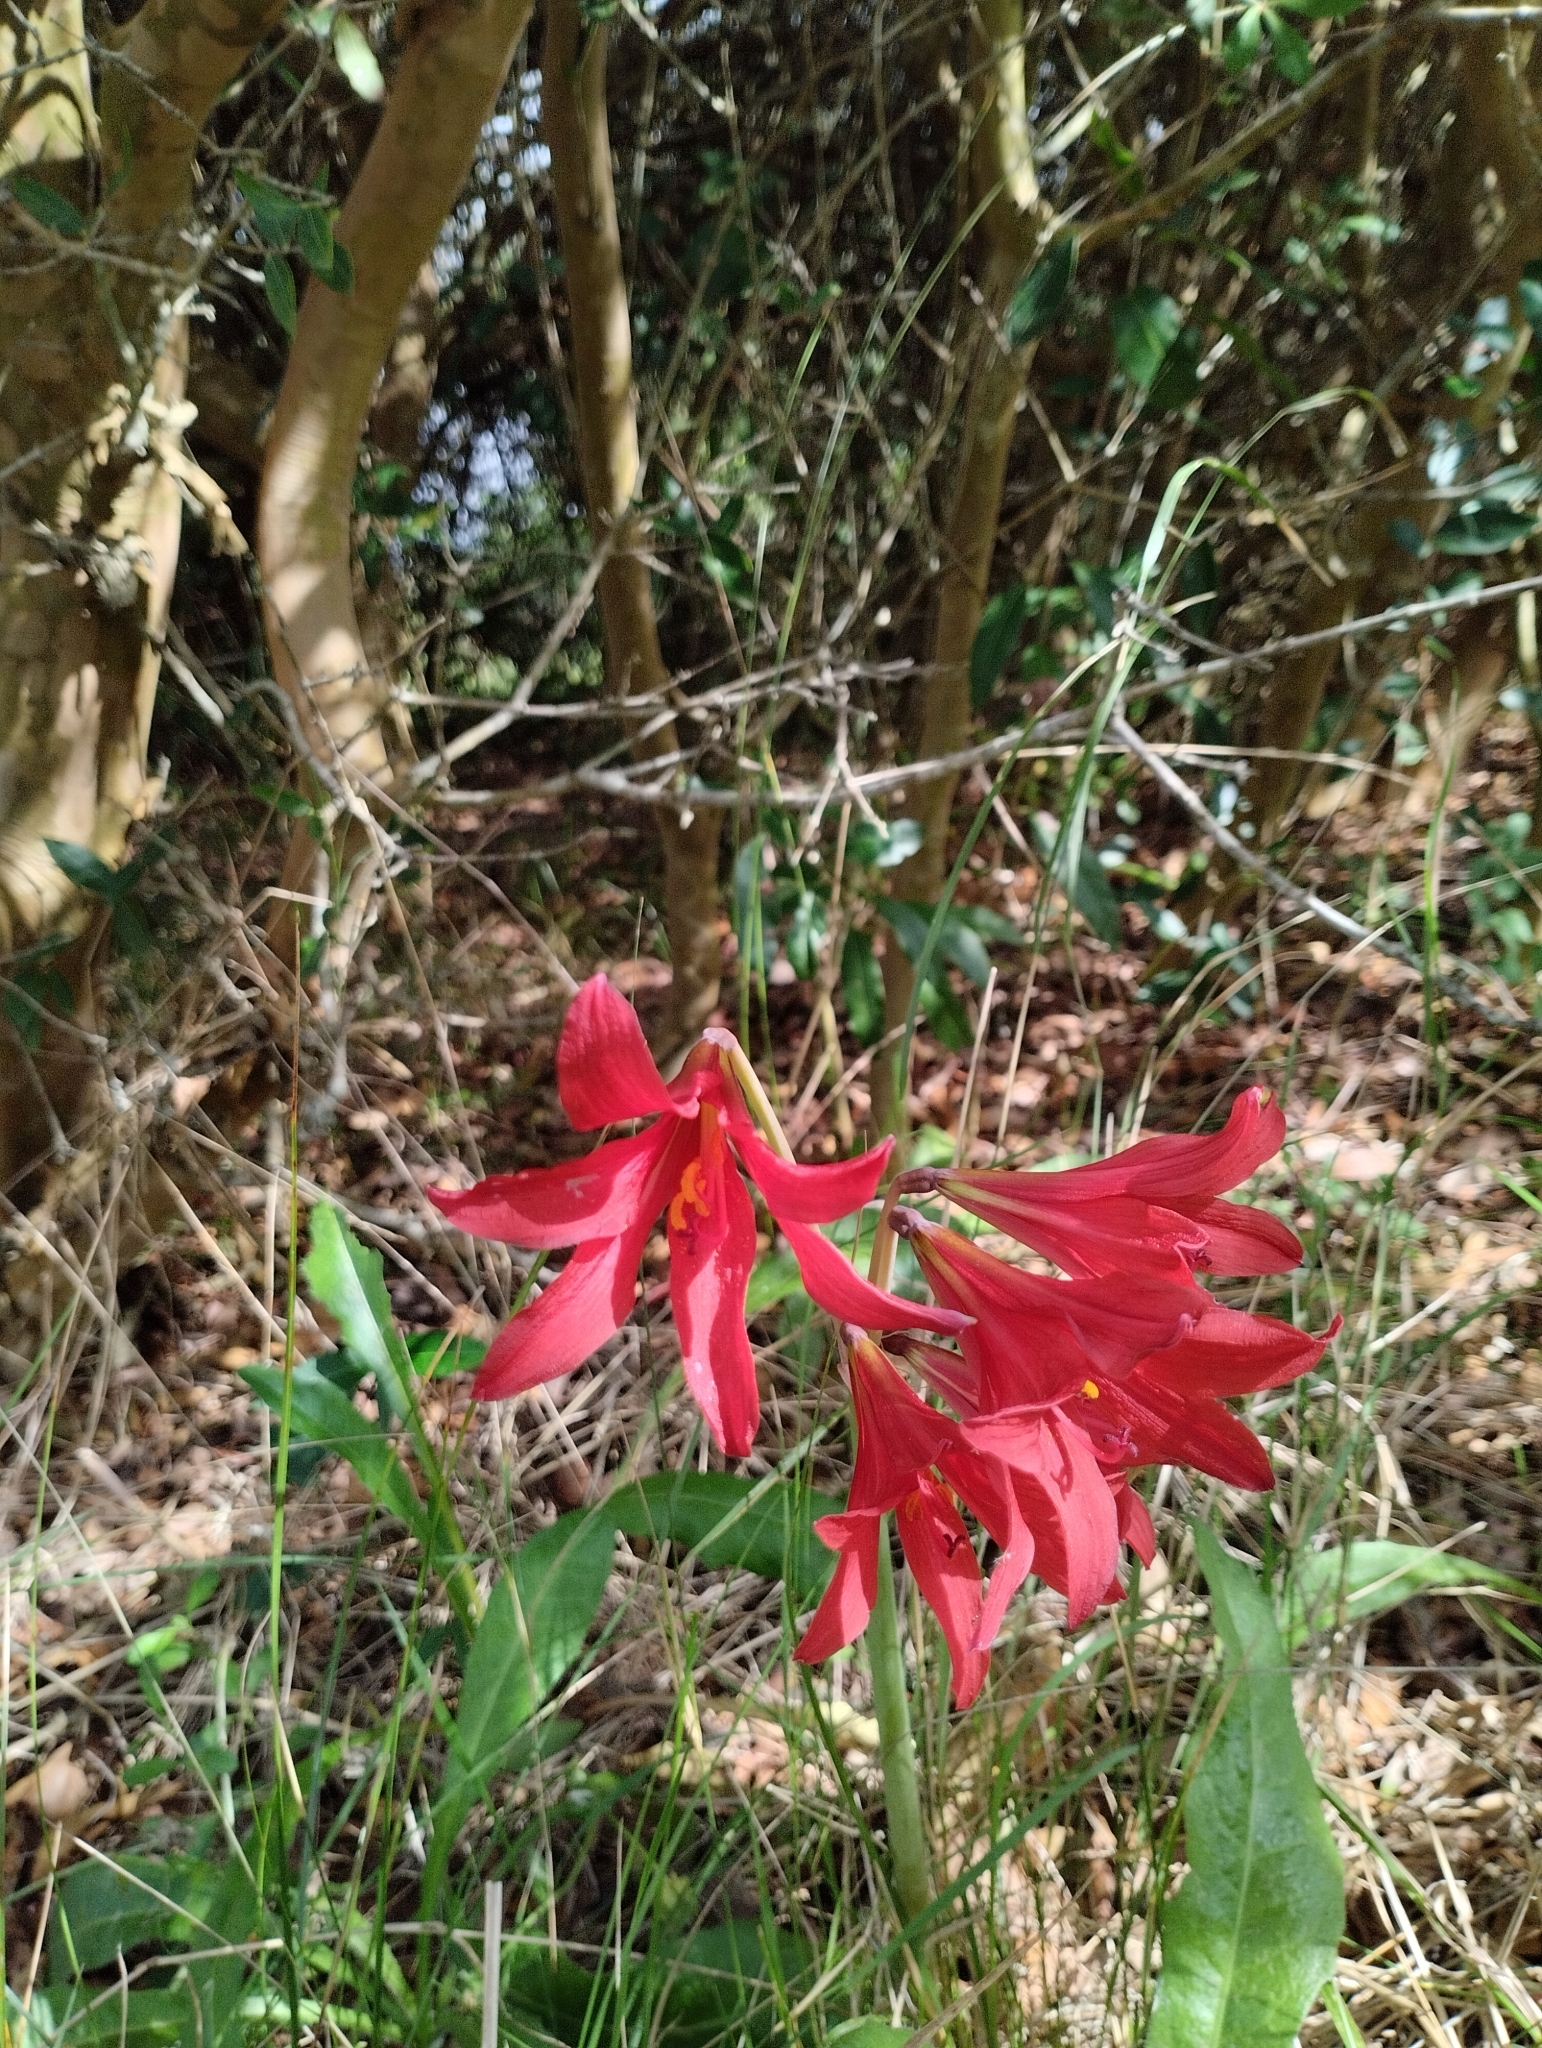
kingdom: Plantae
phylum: Tracheophyta
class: Liliopsida
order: Asparagales
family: Amaryllidaceae
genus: Zephyranthes
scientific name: Zephyranthes bifida
